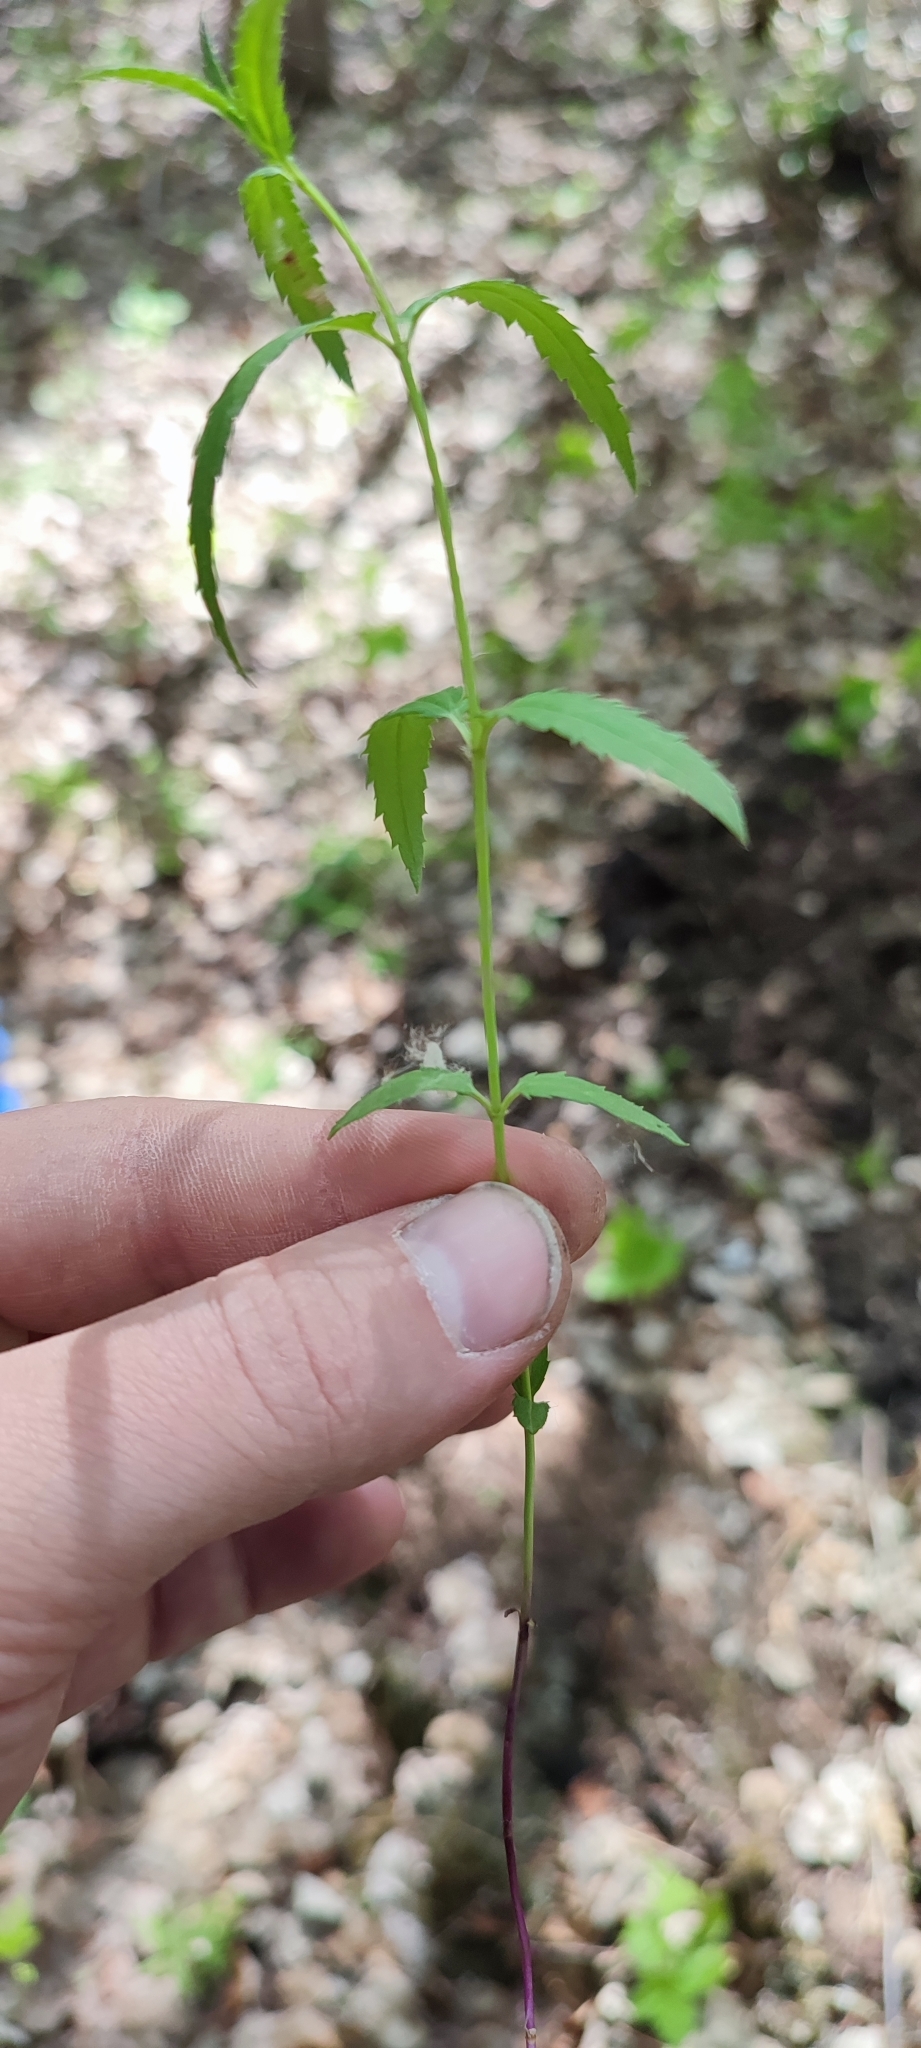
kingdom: Plantae
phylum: Tracheophyta
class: Magnoliopsida
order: Lamiales
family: Plantaginaceae
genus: Veronica
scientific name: Veronica longifolia
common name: Garden speedwell
